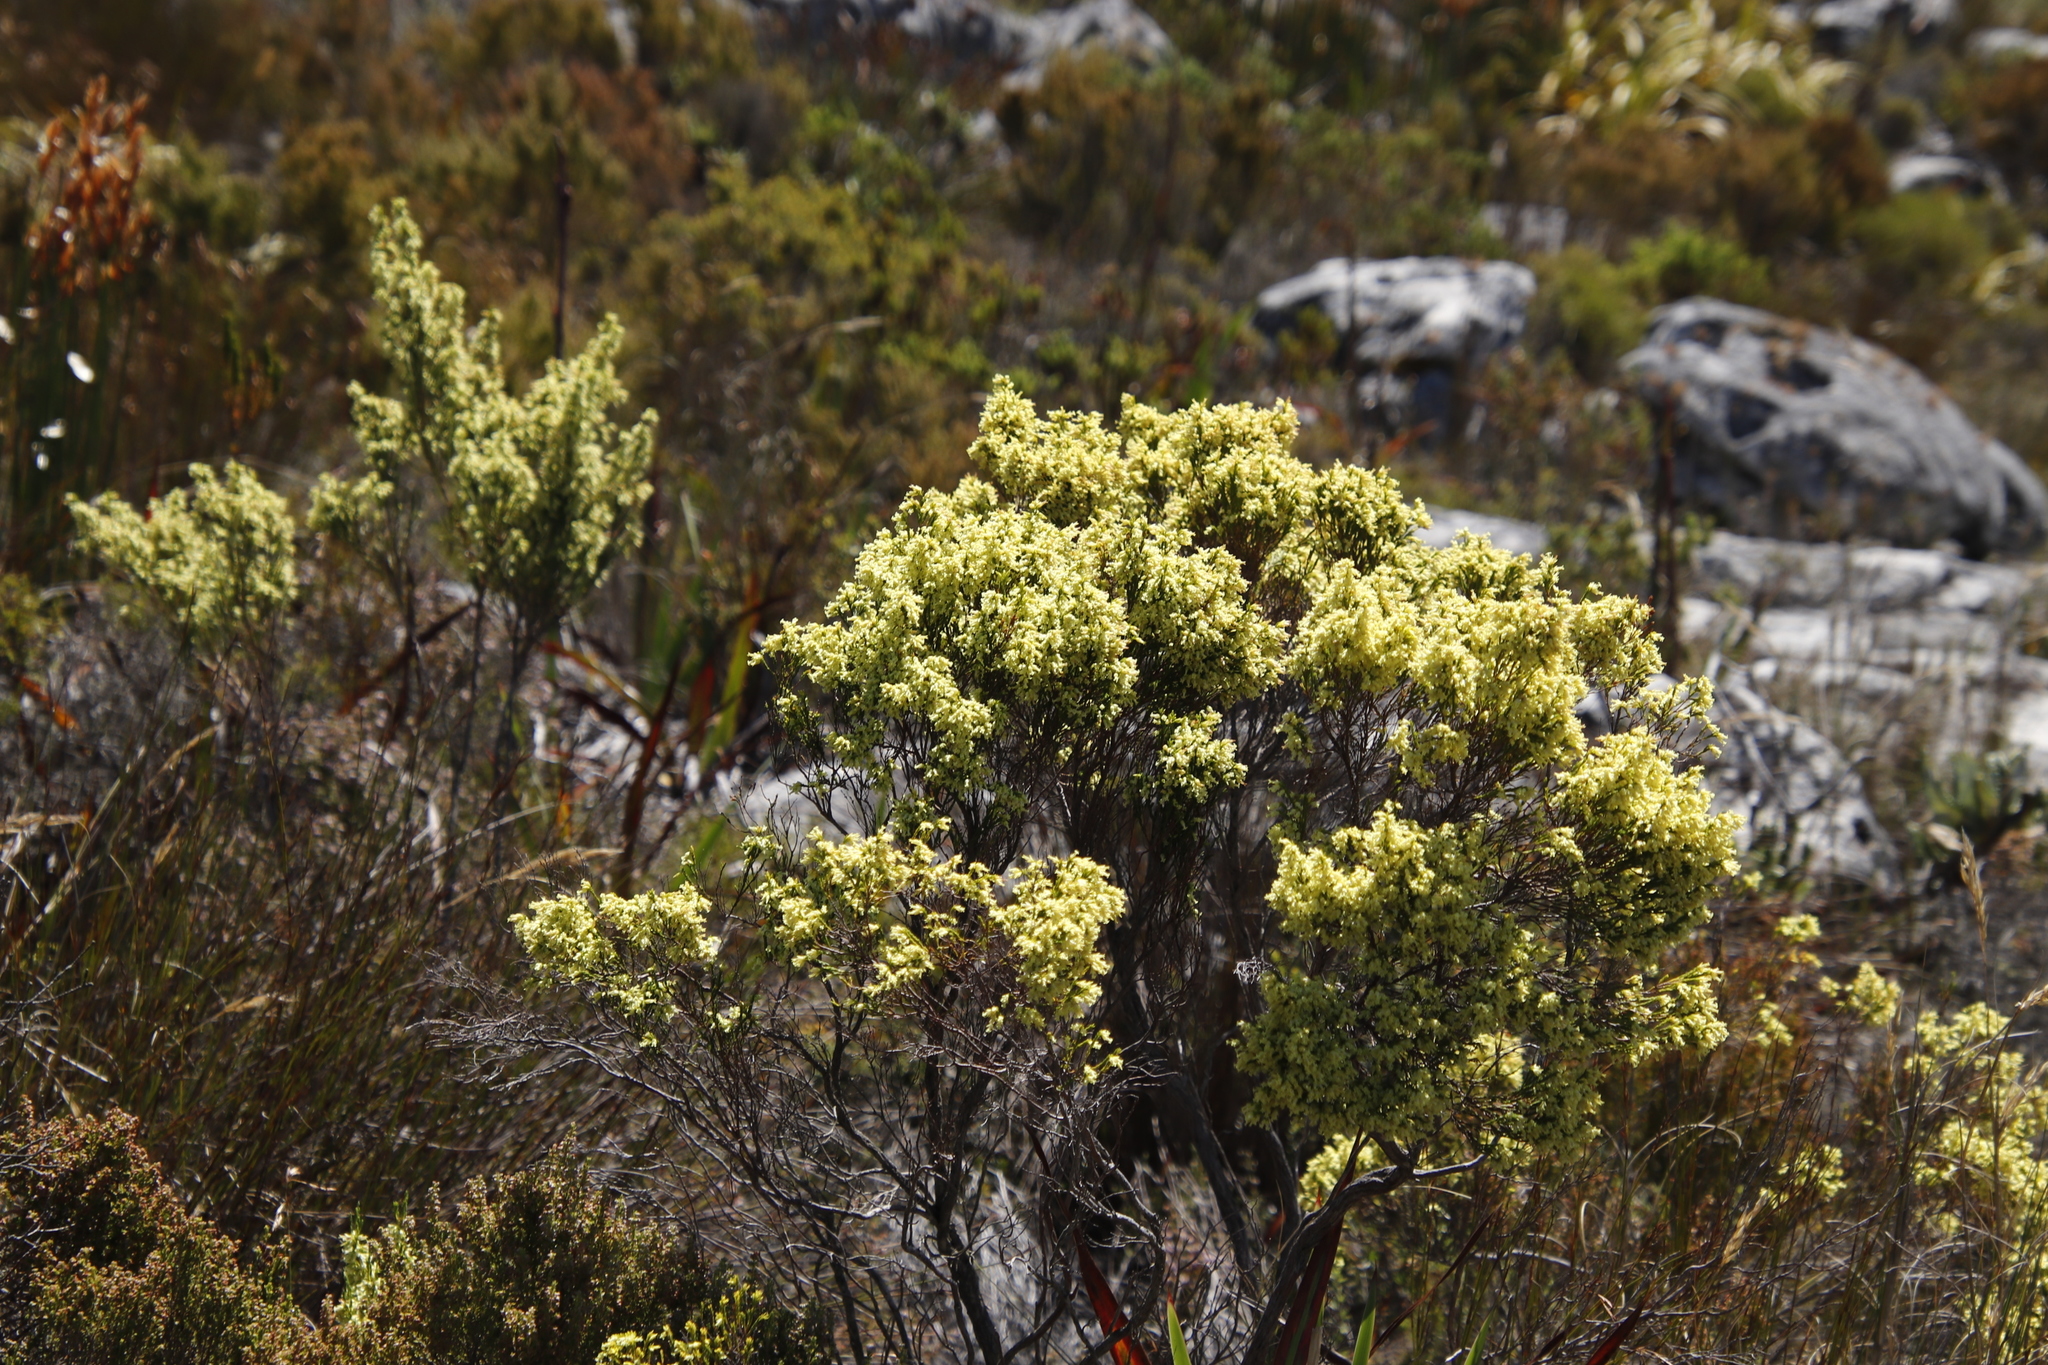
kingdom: Plantae
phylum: Tracheophyta
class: Magnoliopsida
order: Ericales
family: Ericaceae
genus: Erica
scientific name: Erica lutea
